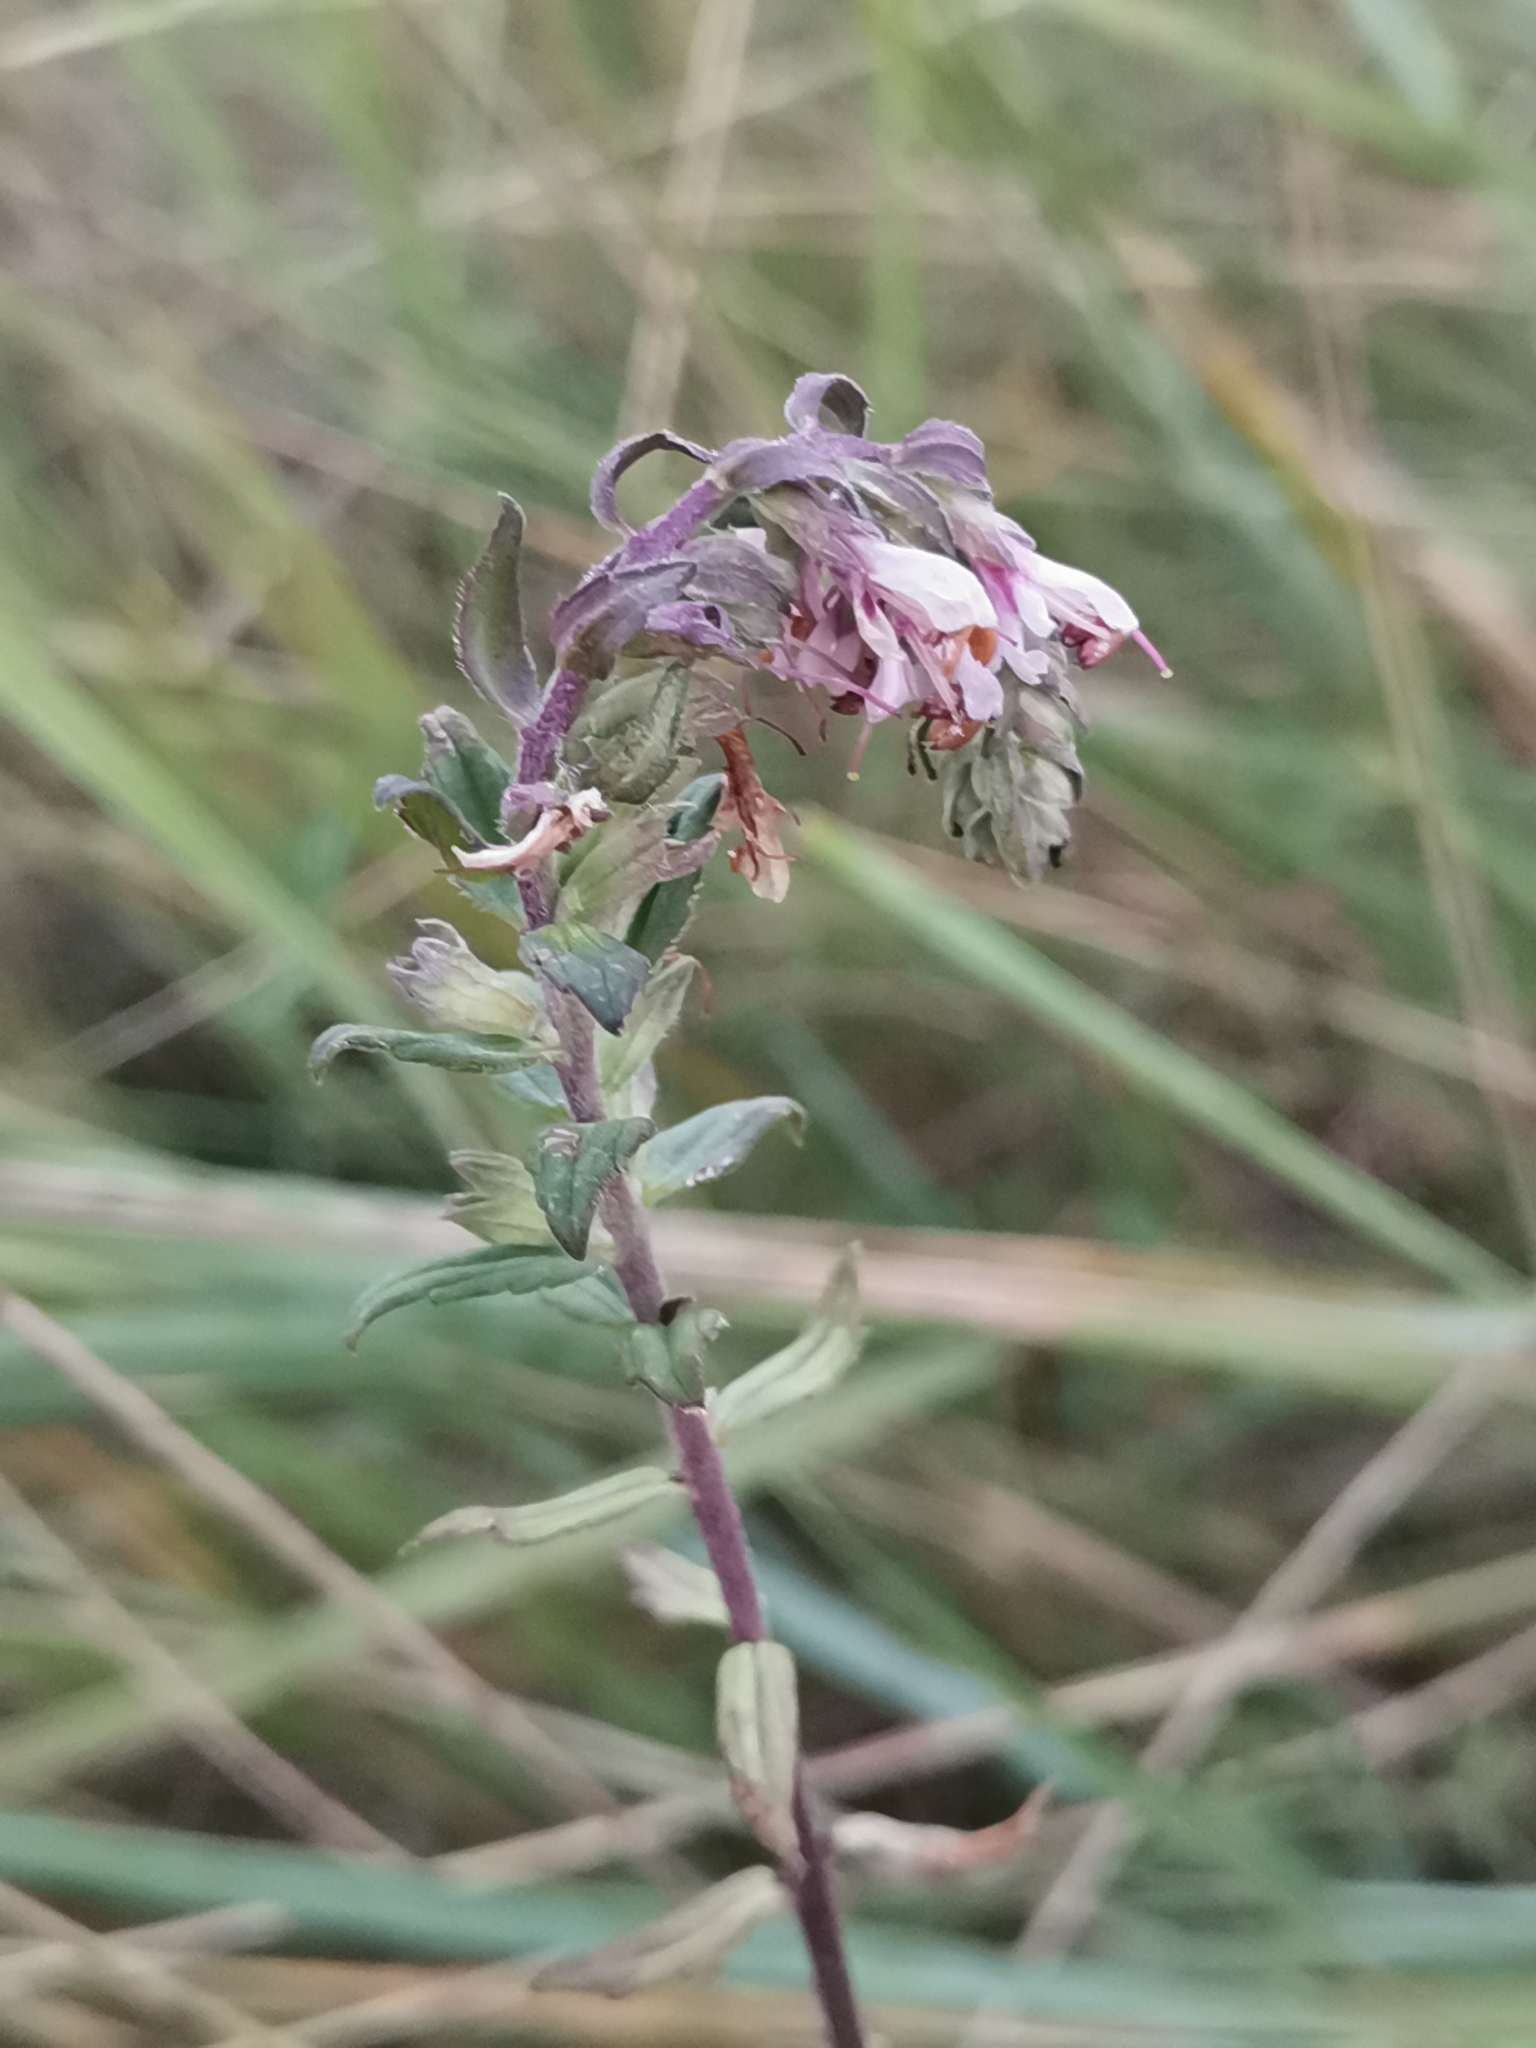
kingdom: Plantae
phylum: Tracheophyta
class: Magnoliopsida
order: Lamiales
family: Orobanchaceae
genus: Odontites
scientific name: Odontites vulgaris
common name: Broomrape
